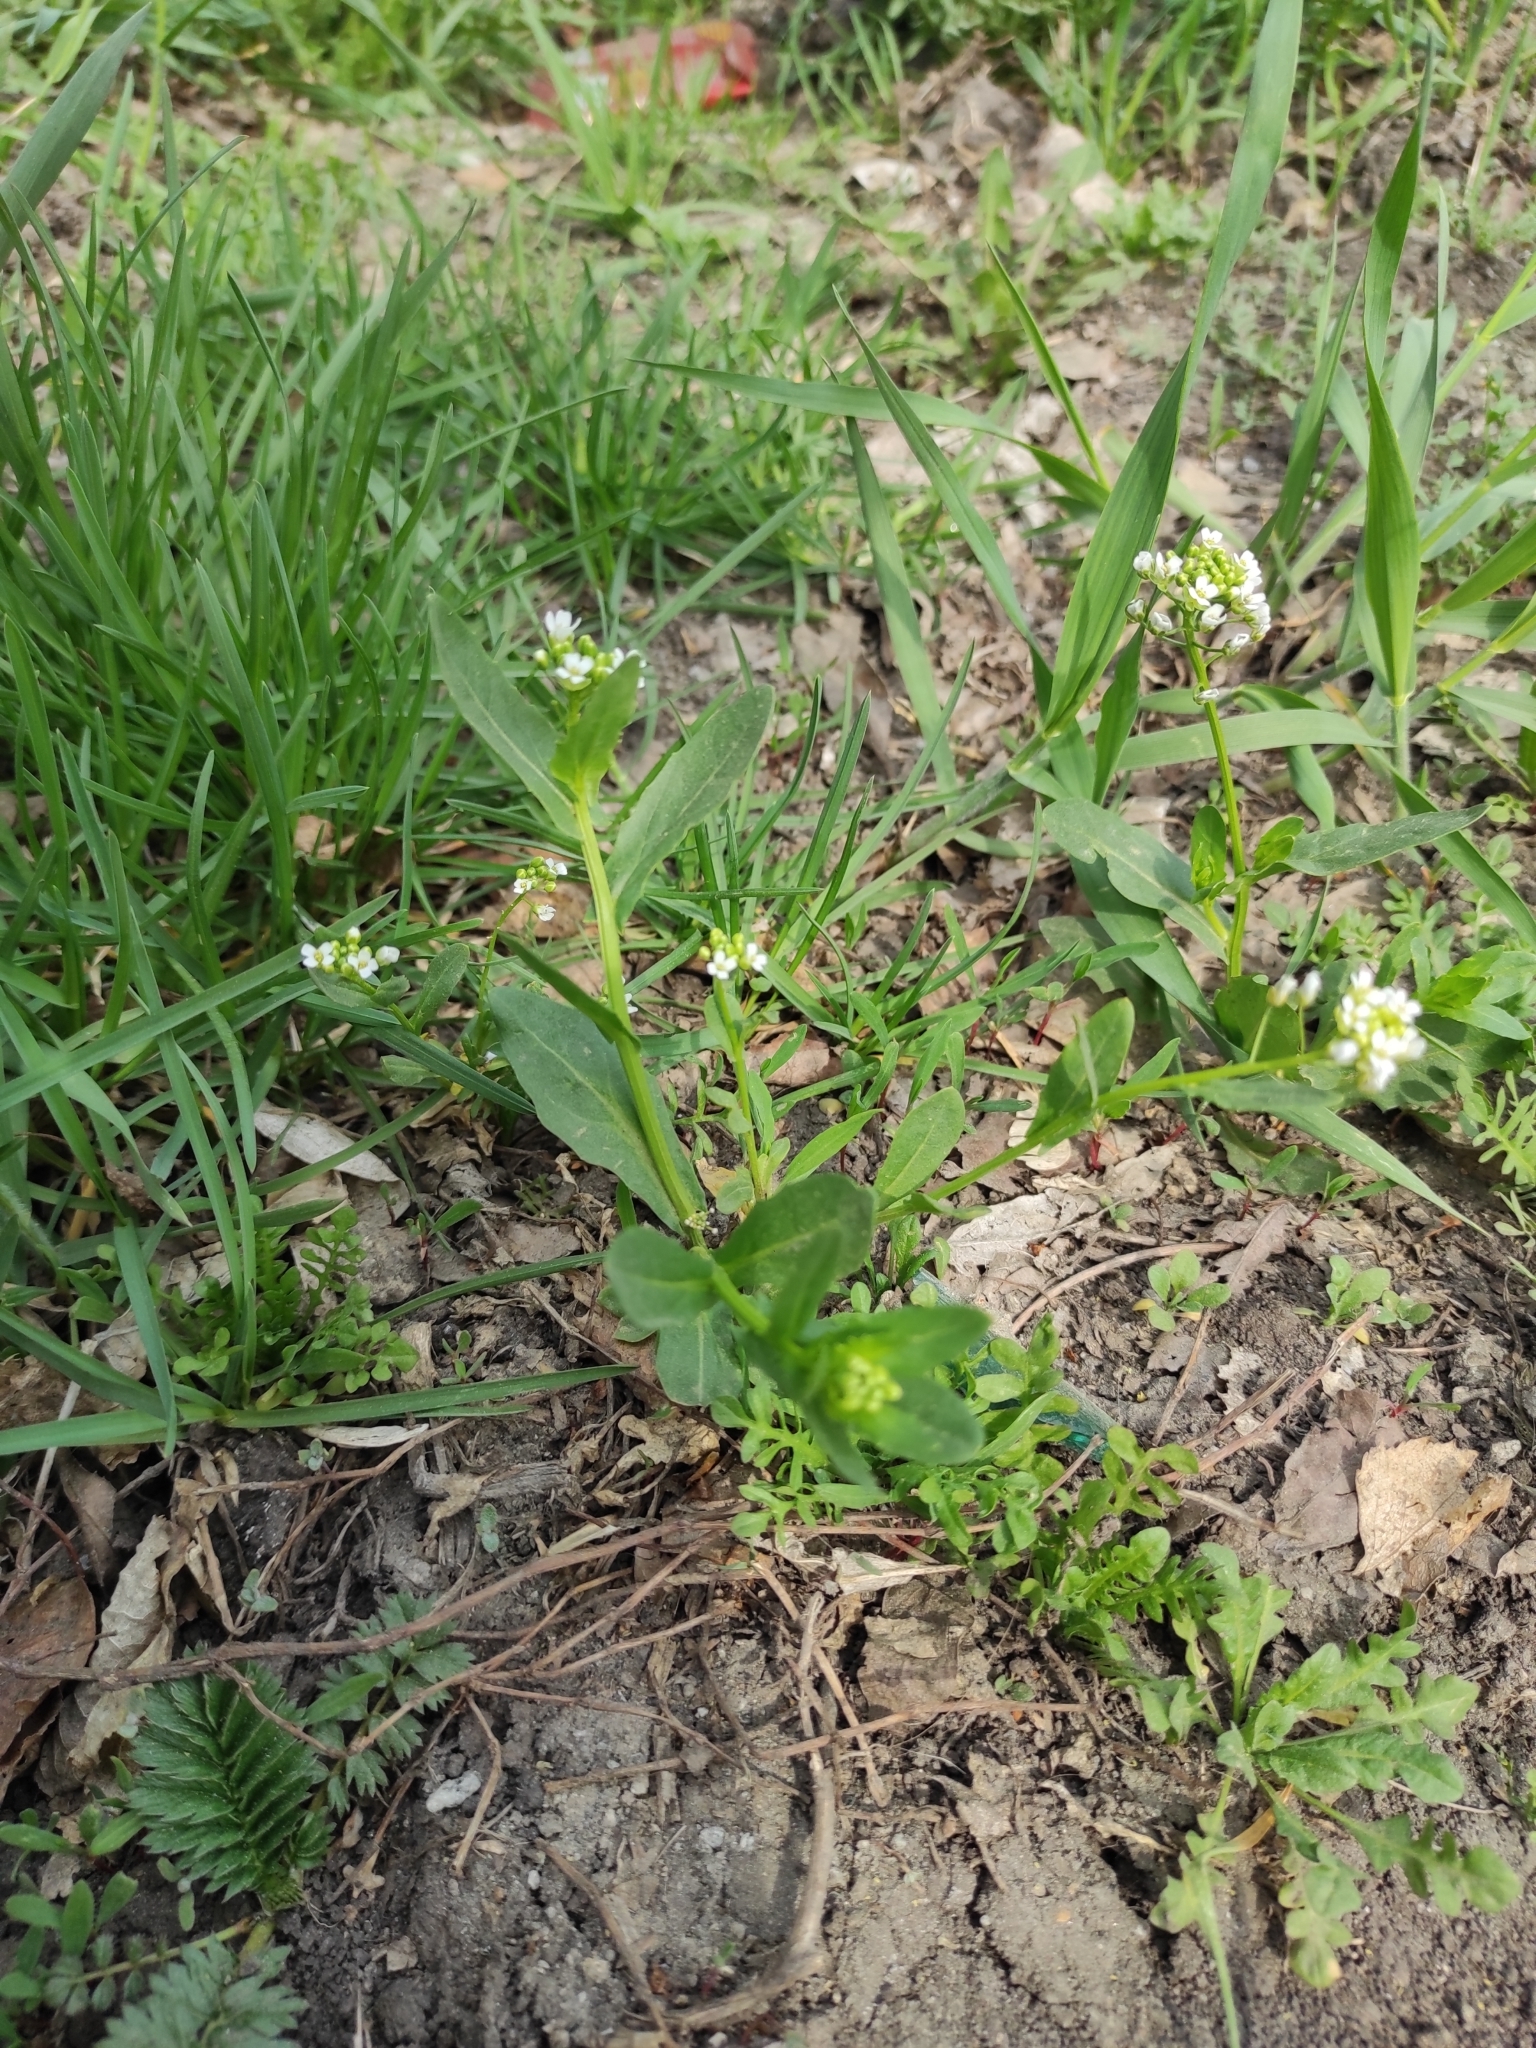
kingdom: Plantae
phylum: Tracheophyta
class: Magnoliopsida
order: Brassicales
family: Brassicaceae
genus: Berteroa
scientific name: Berteroa incana
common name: Hoary alison
